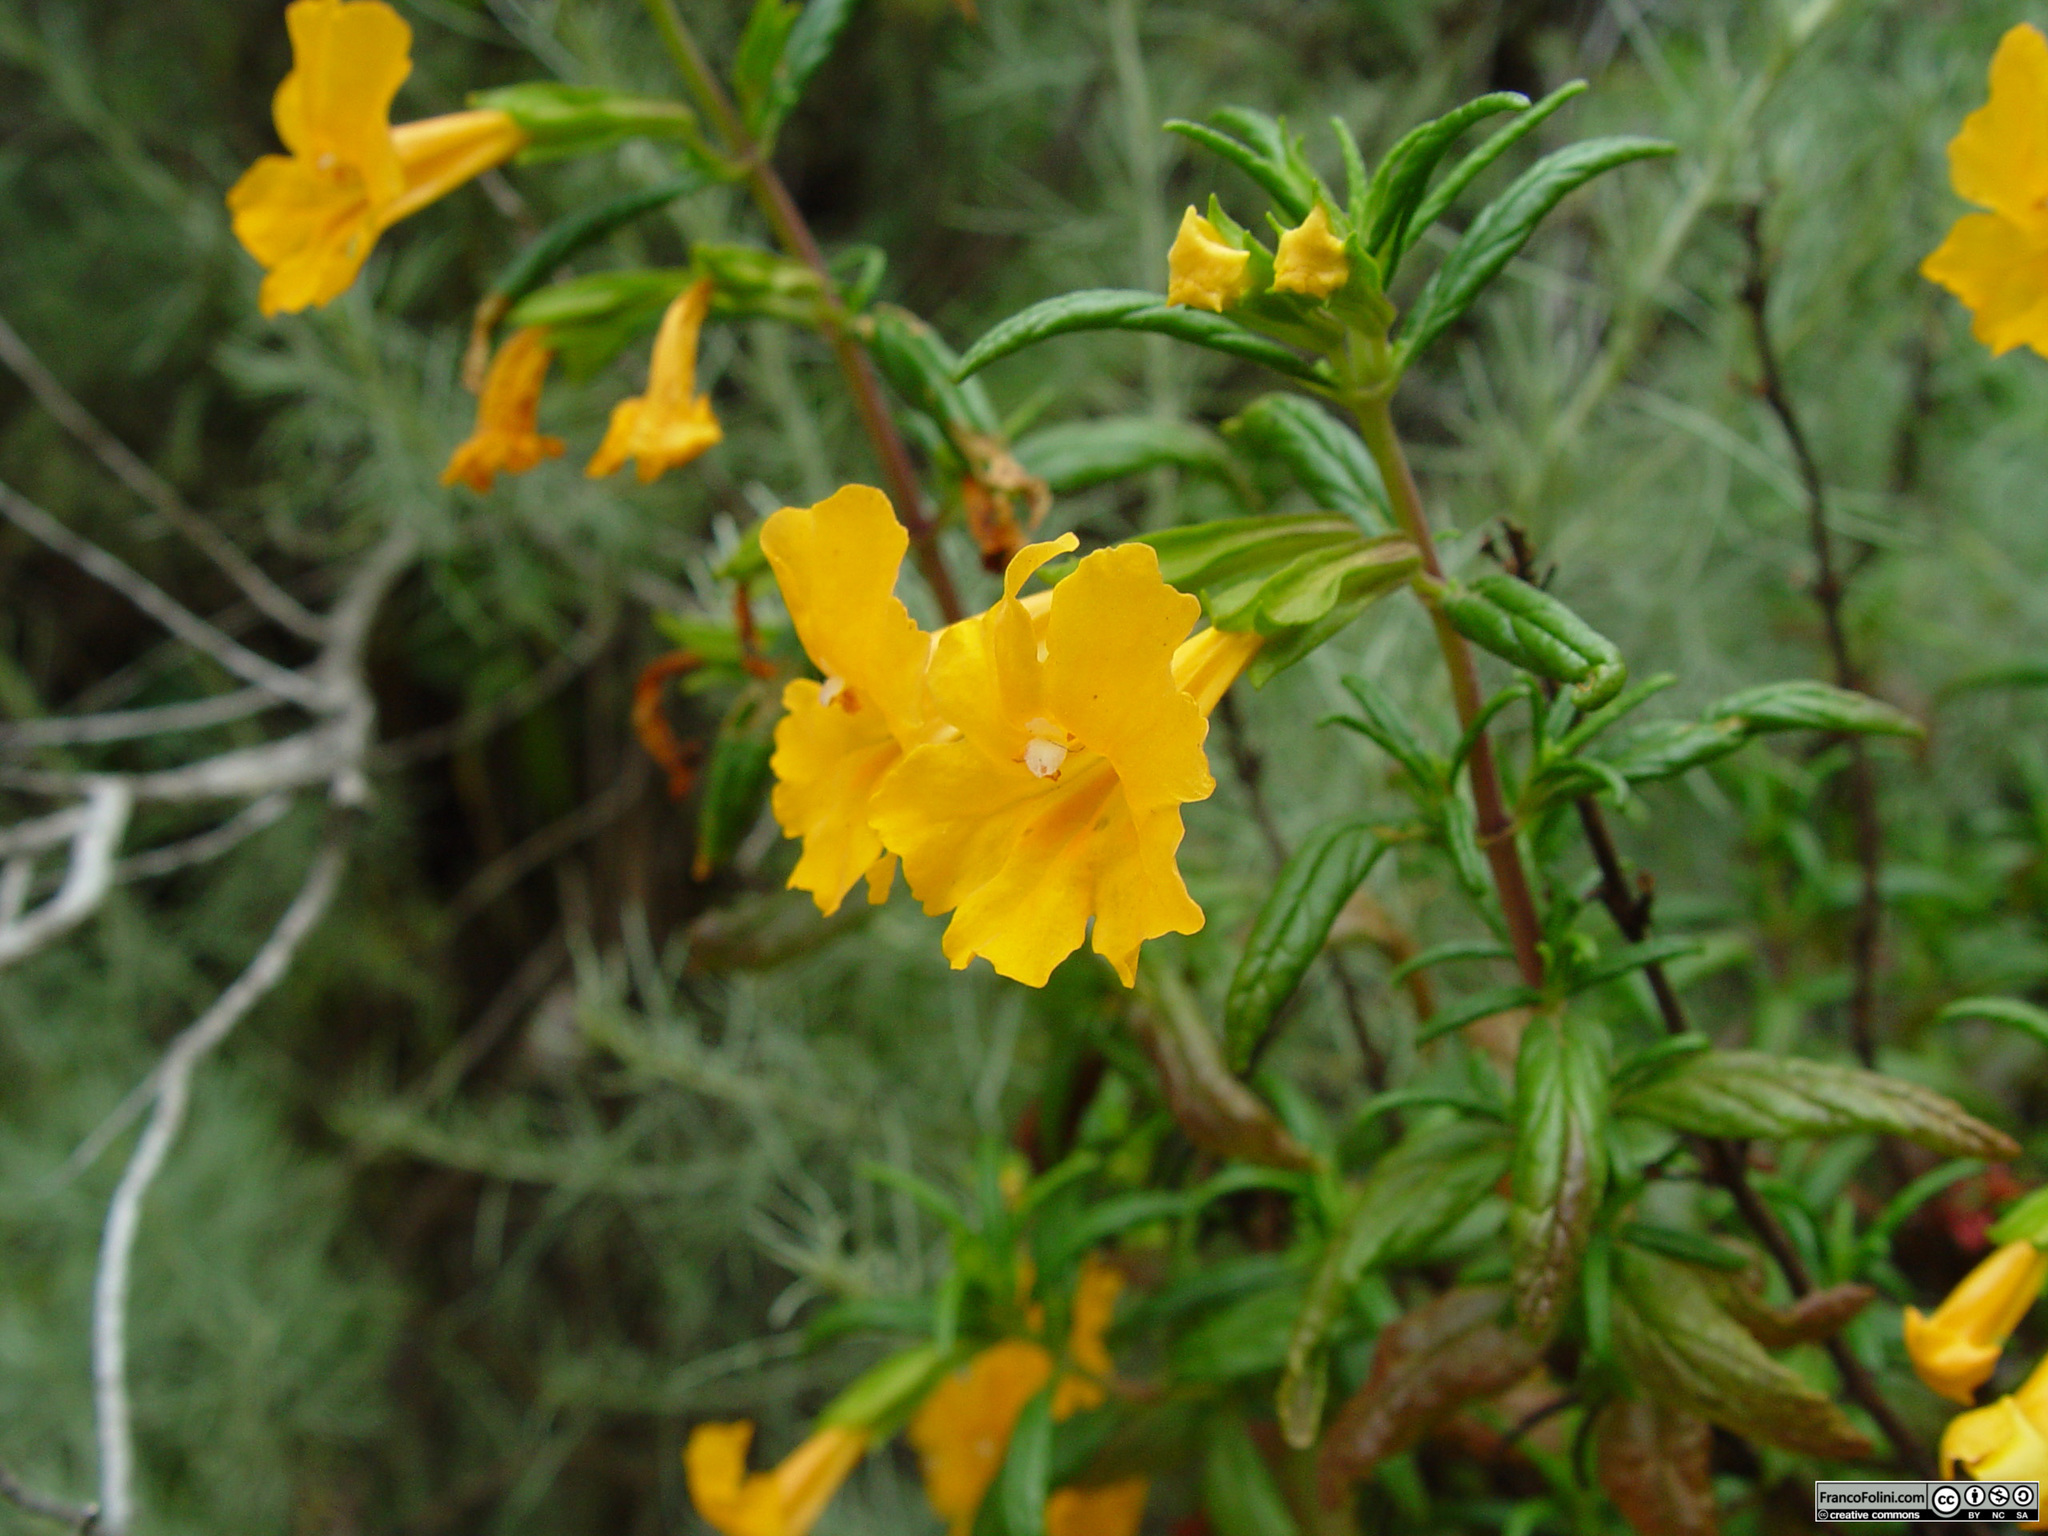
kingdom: Plantae
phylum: Tracheophyta
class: Magnoliopsida
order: Lamiales
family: Phrymaceae
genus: Diplacus
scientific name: Diplacus aurantiacus
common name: Bush monkey-flower
